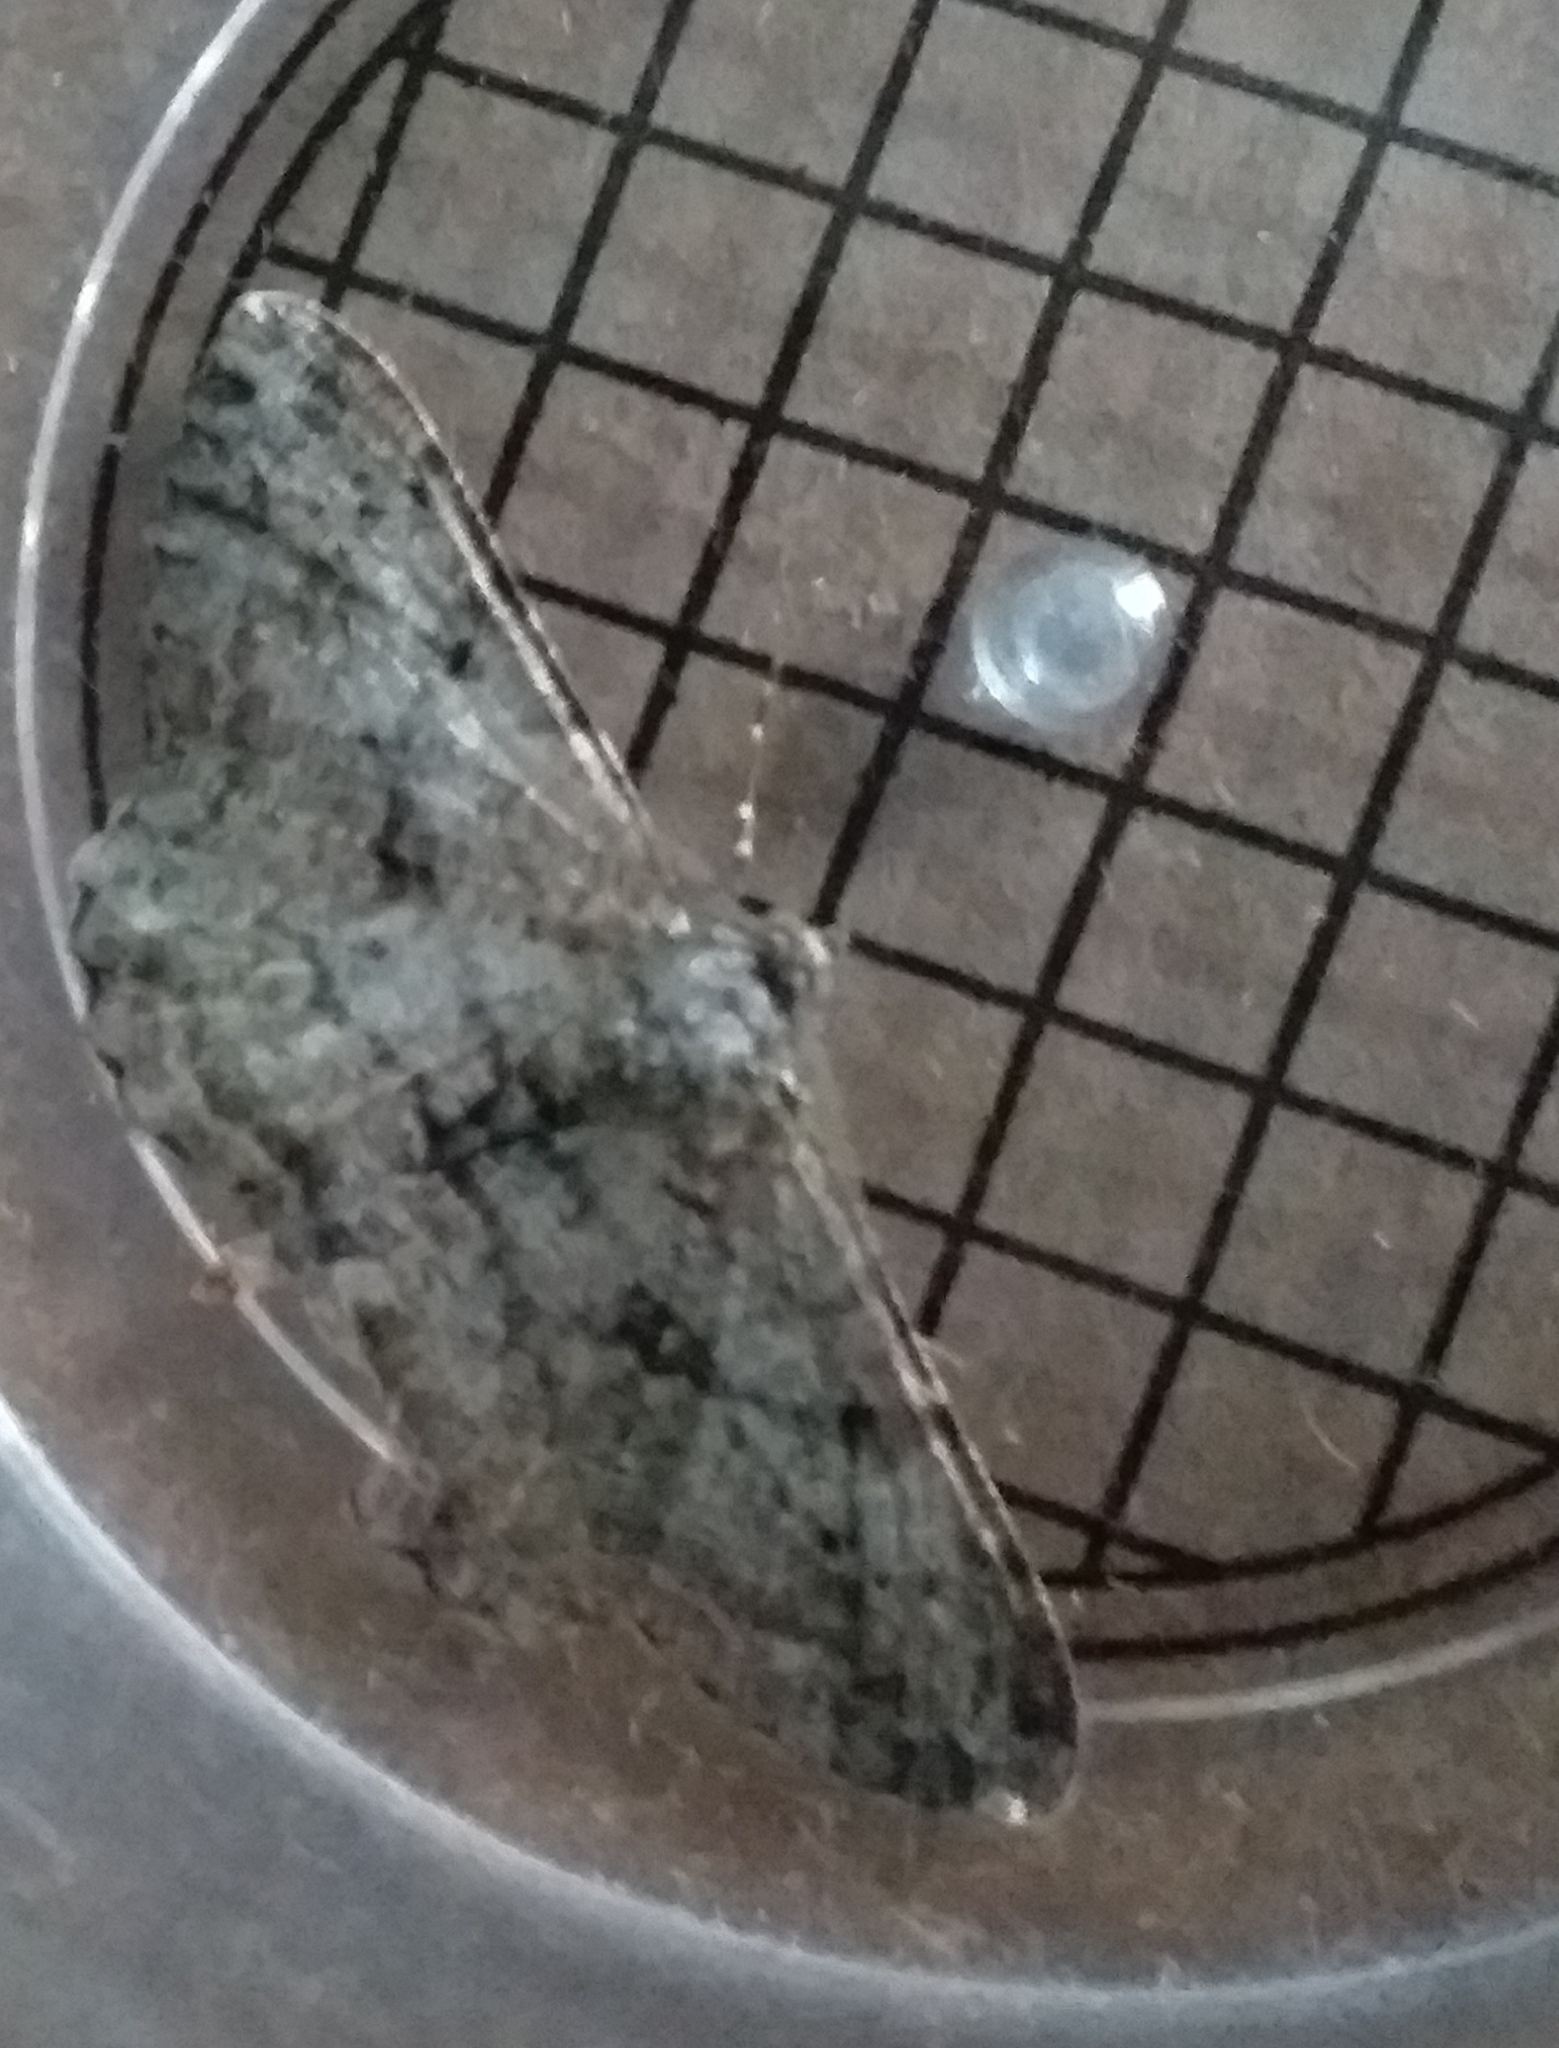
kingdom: Animalia
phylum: Arthropoda
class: Insecta
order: Lepidoptera
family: Geometridae
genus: Peribatodes
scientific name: Peribatodes rhomboidaria
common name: Willow beauty
